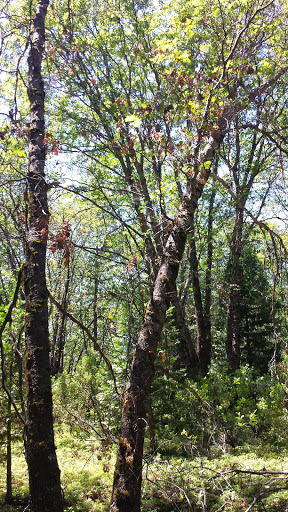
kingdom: Plantae
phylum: Tracheophyta
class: Magnoliopsida
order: Fagales
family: Fagaceae
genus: Quercus
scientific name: Quercus kelloggii
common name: California black oak
